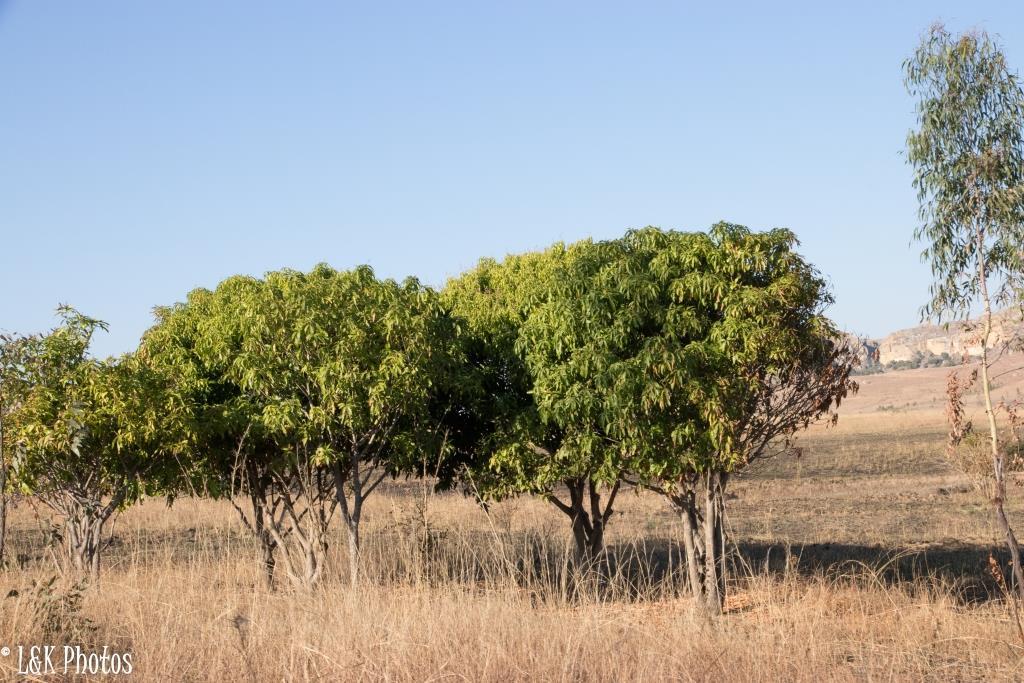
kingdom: Plantae
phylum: Tracheophyta
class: Magnoliopsida
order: Sapindales
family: Anacardiaceae
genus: Mangifera
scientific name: Mangifera indica
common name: Mango
